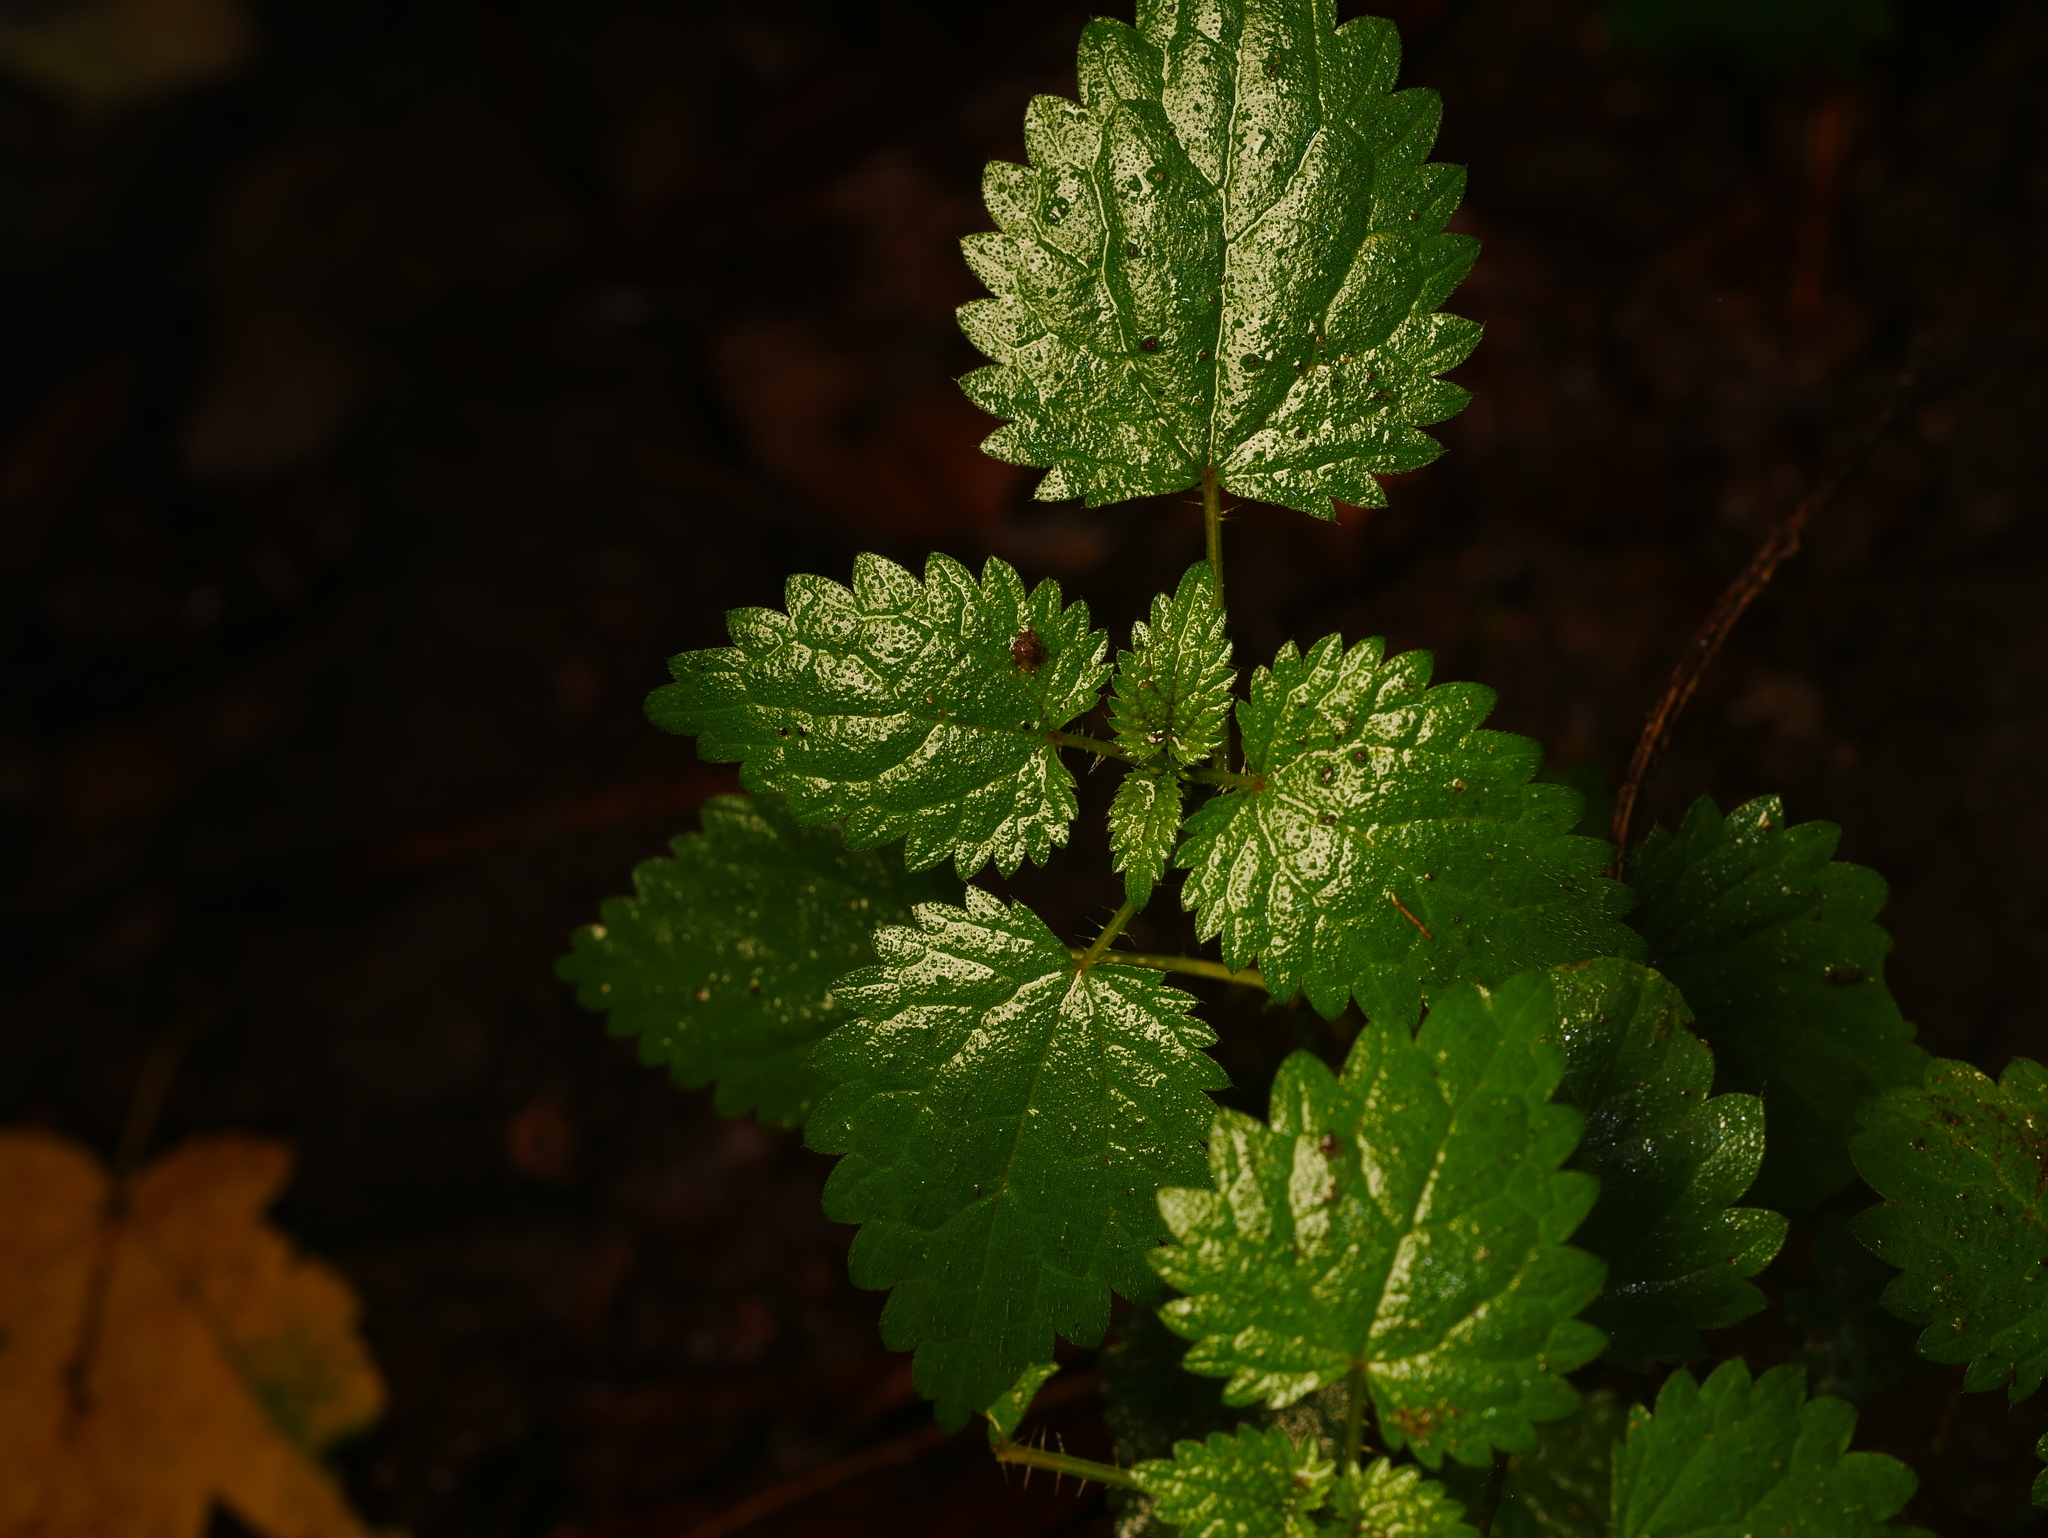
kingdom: Plantae
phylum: Tracheophyta
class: Magnoliopsida
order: Rosales
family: Urticaceae
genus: Urtica
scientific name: Urtica dioica
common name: Common nettle
